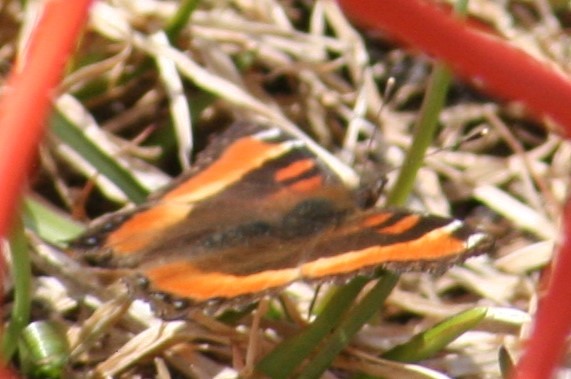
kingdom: Animalia
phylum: Arthropoda
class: Insecta
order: Lepidoptera
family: Nymphalidae
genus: Aglais
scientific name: Aglais milberti
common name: Milbert's tortoiseshell
